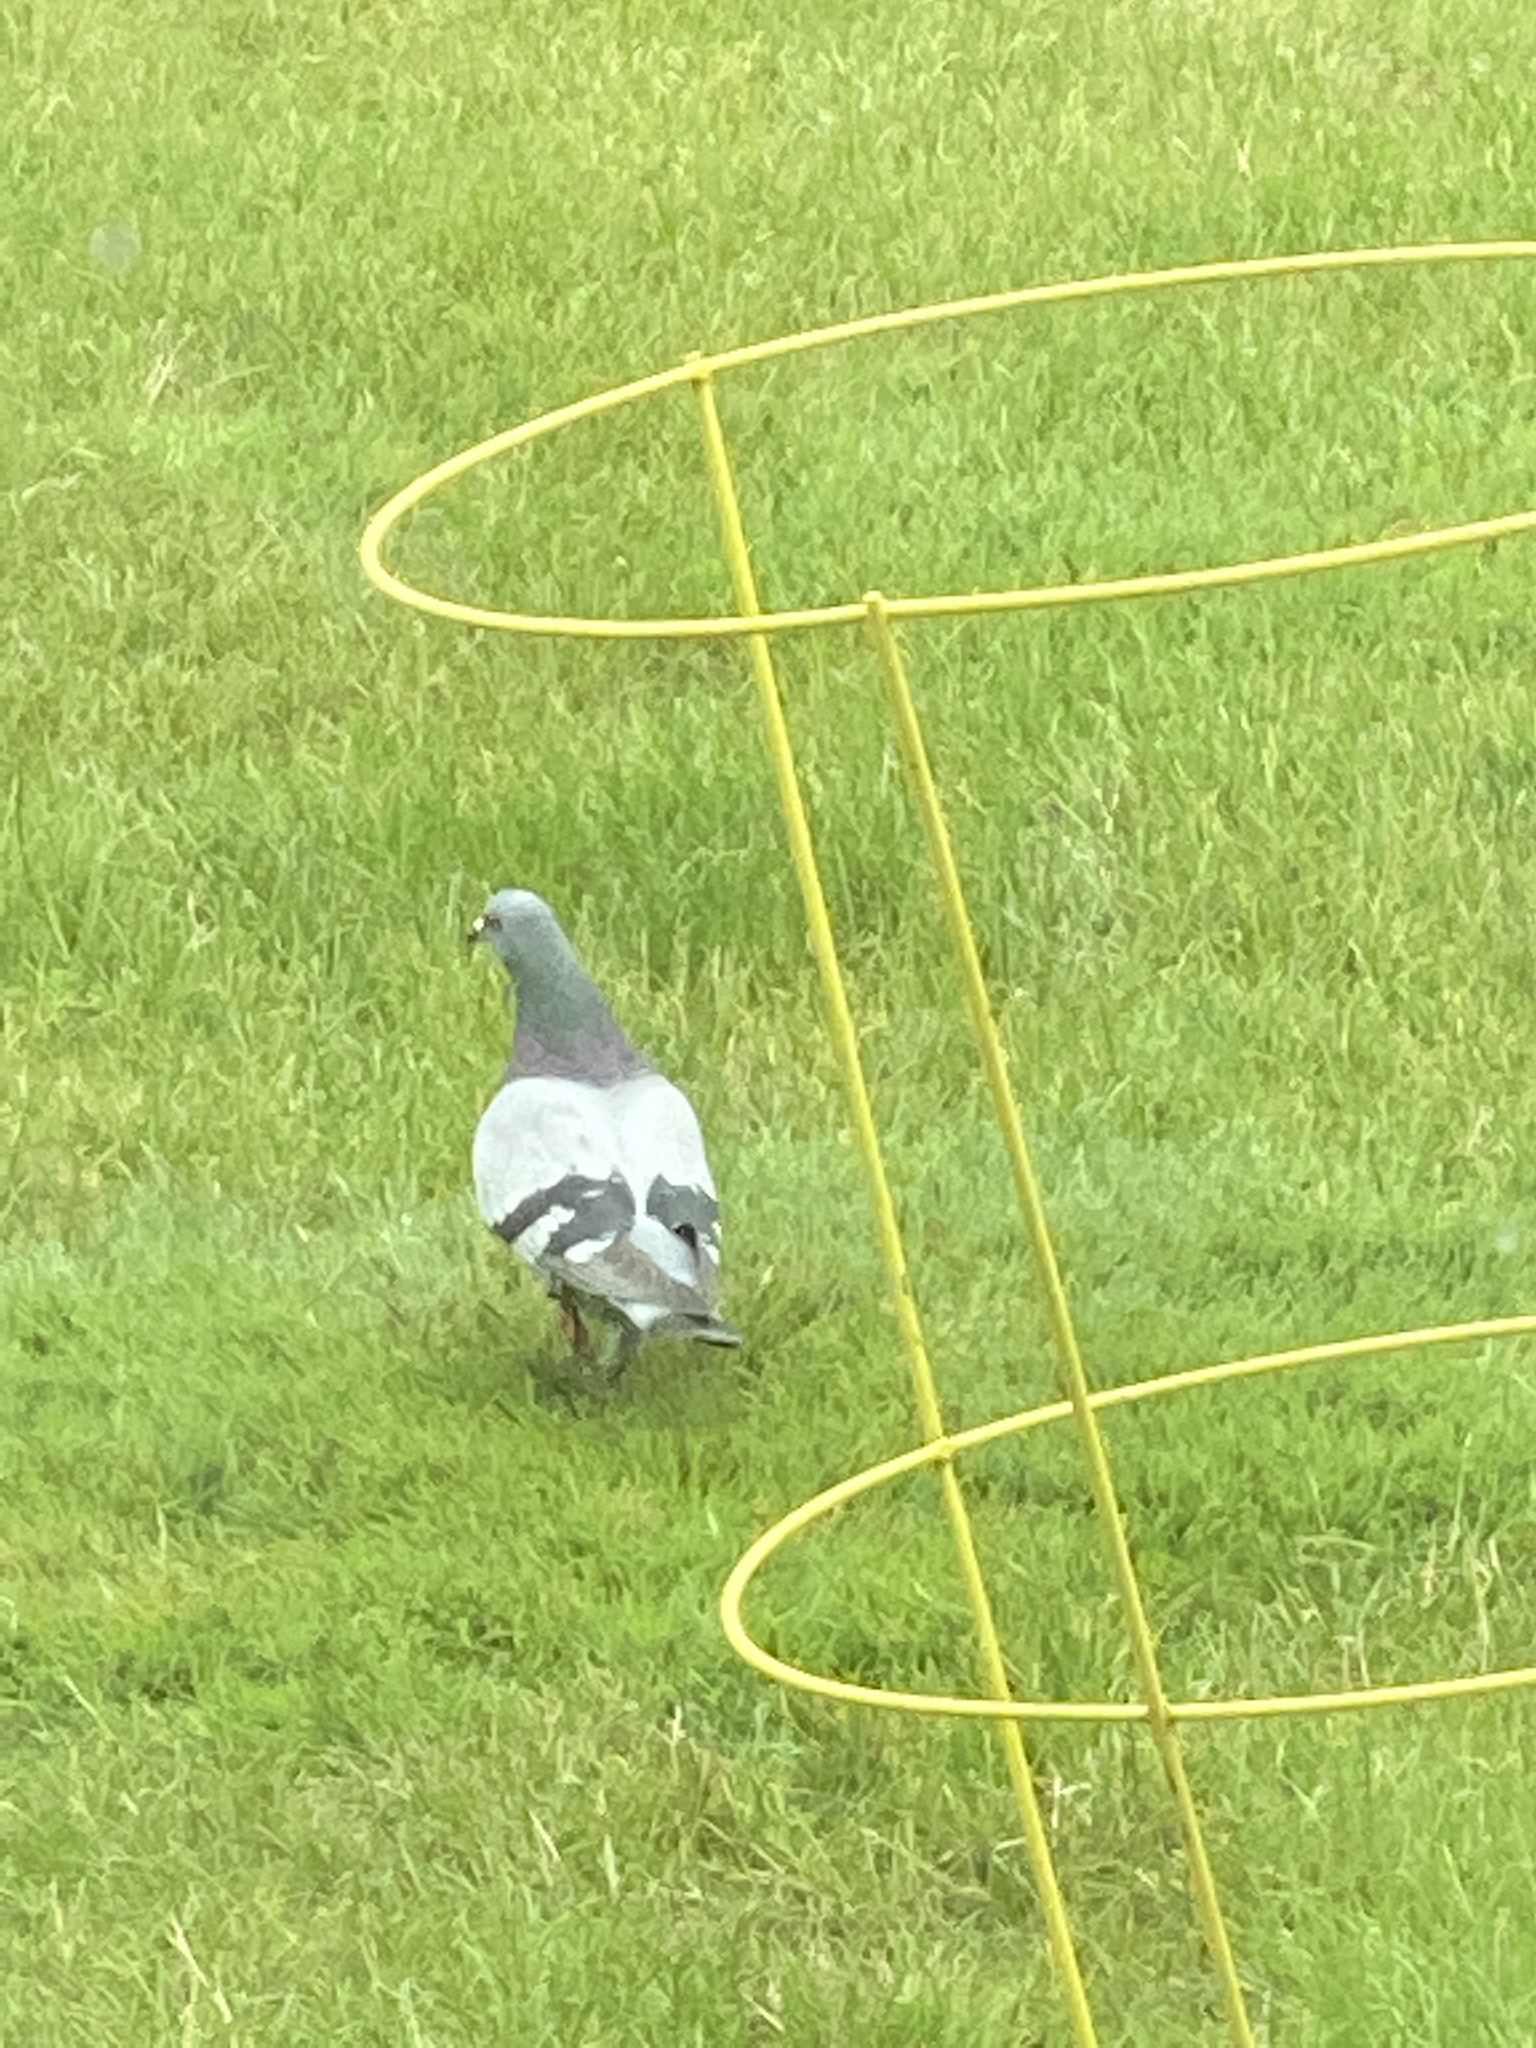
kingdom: Animalia
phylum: Chordata
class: Aves
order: Columbiformes
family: Columbidae
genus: Columba
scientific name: Columba livia
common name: Rock pigeon
